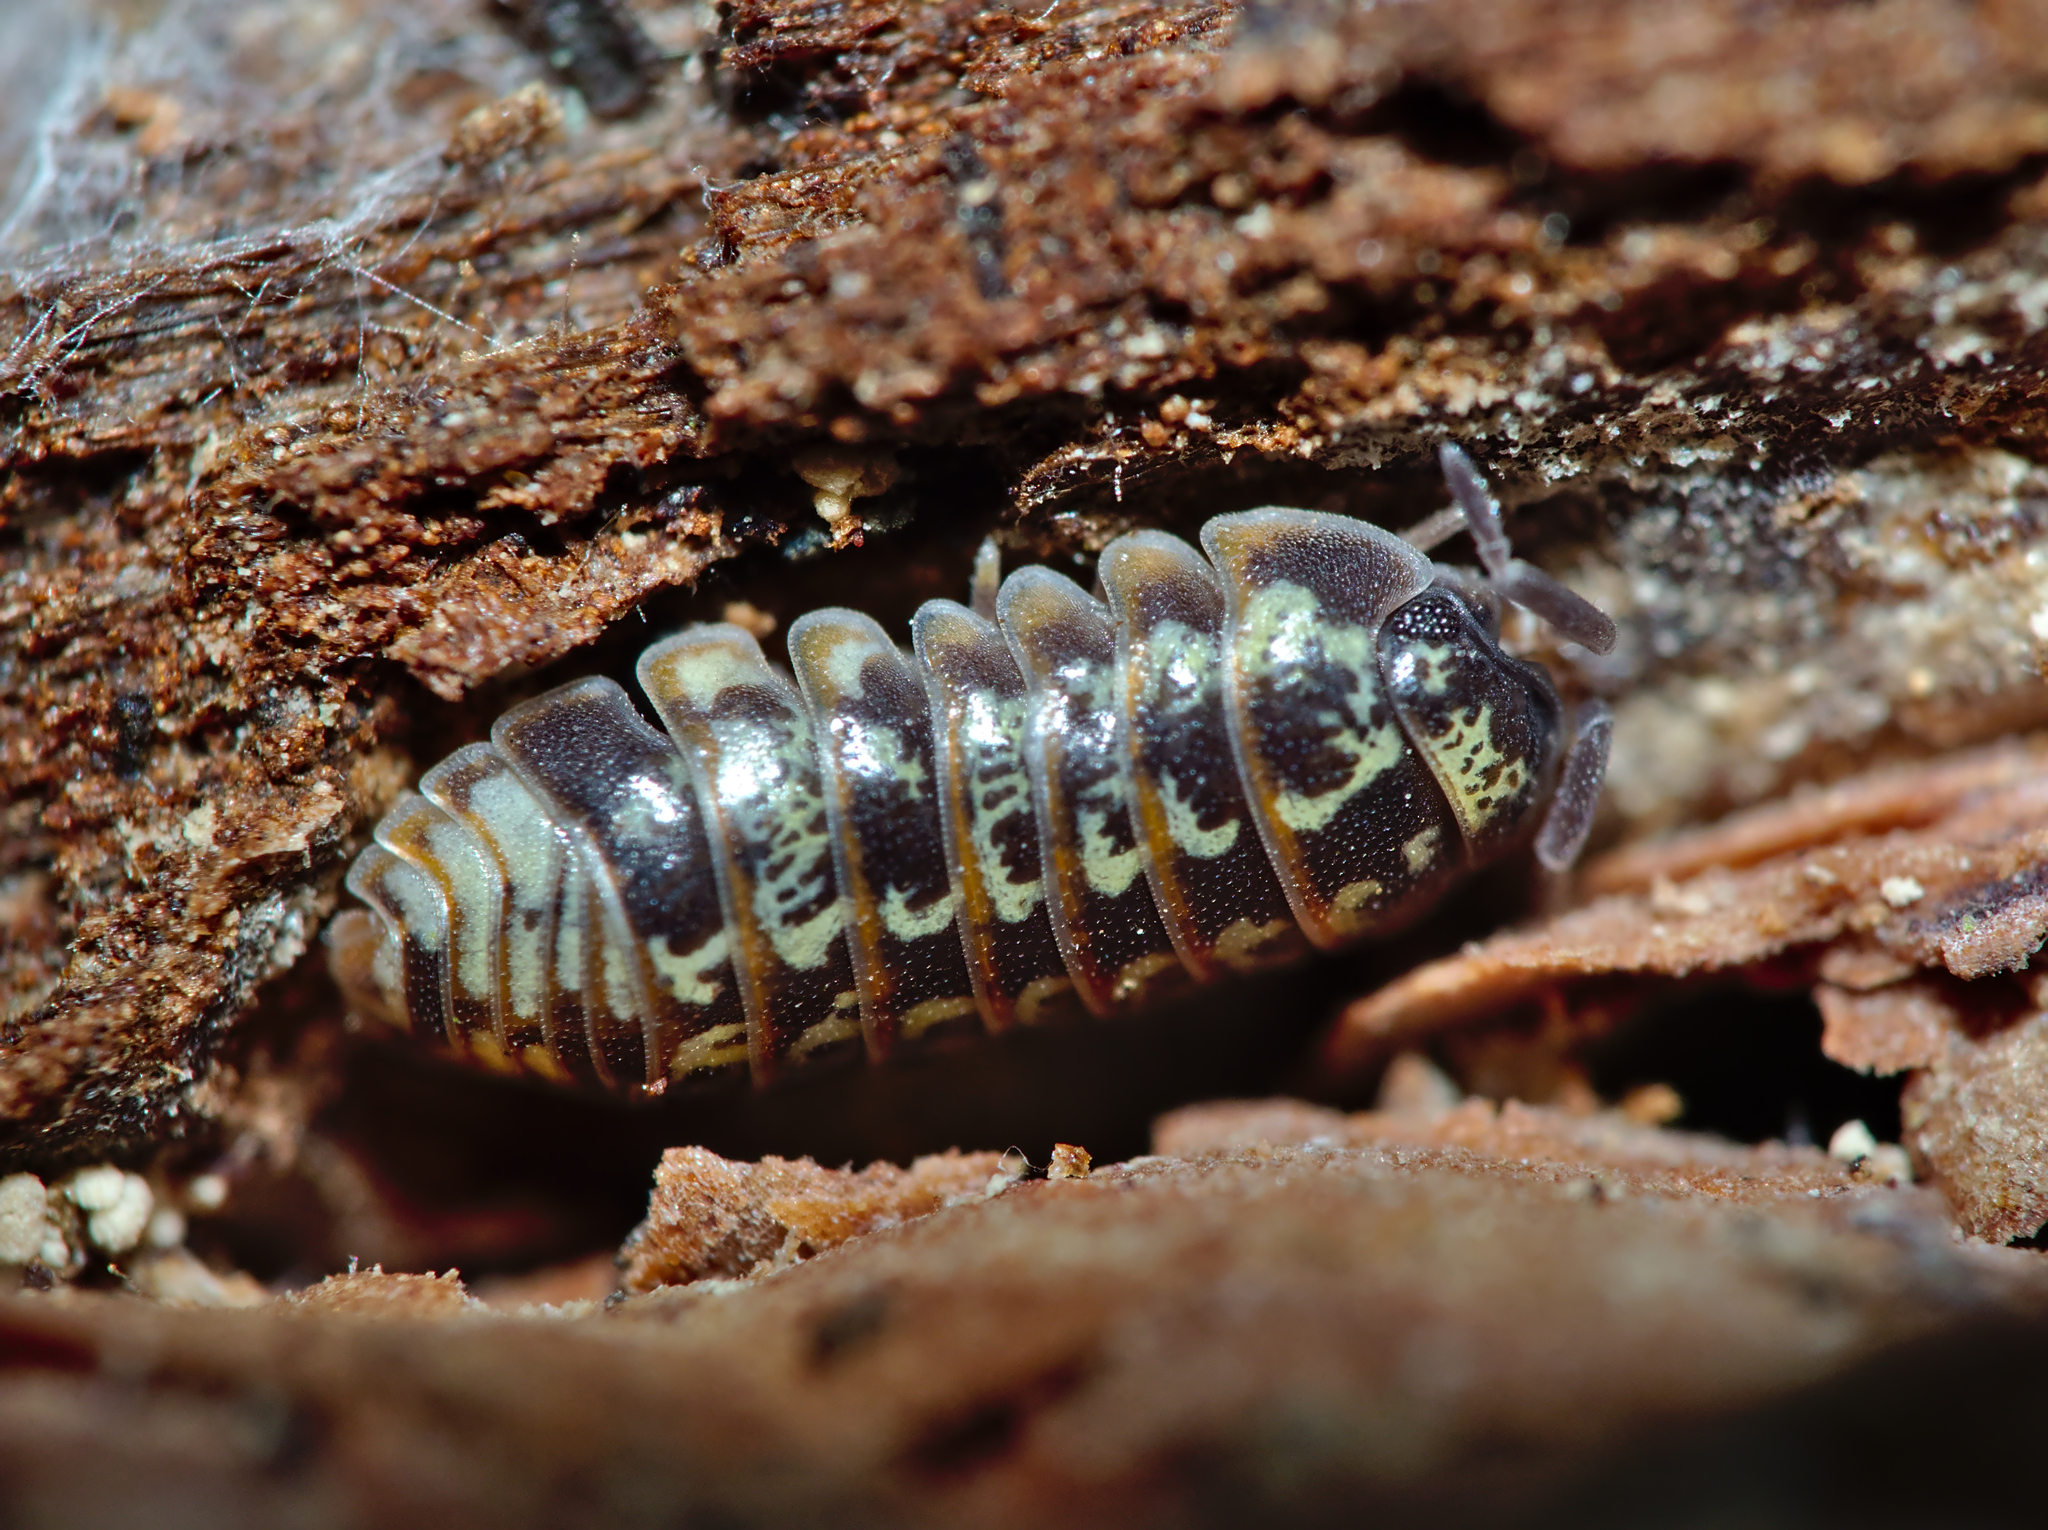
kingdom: Animalia
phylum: Arthropoda
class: Malacostraca
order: Isopoda
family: Armadillidiidae
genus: Armadillidium
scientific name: Armadillidium pulchellum
